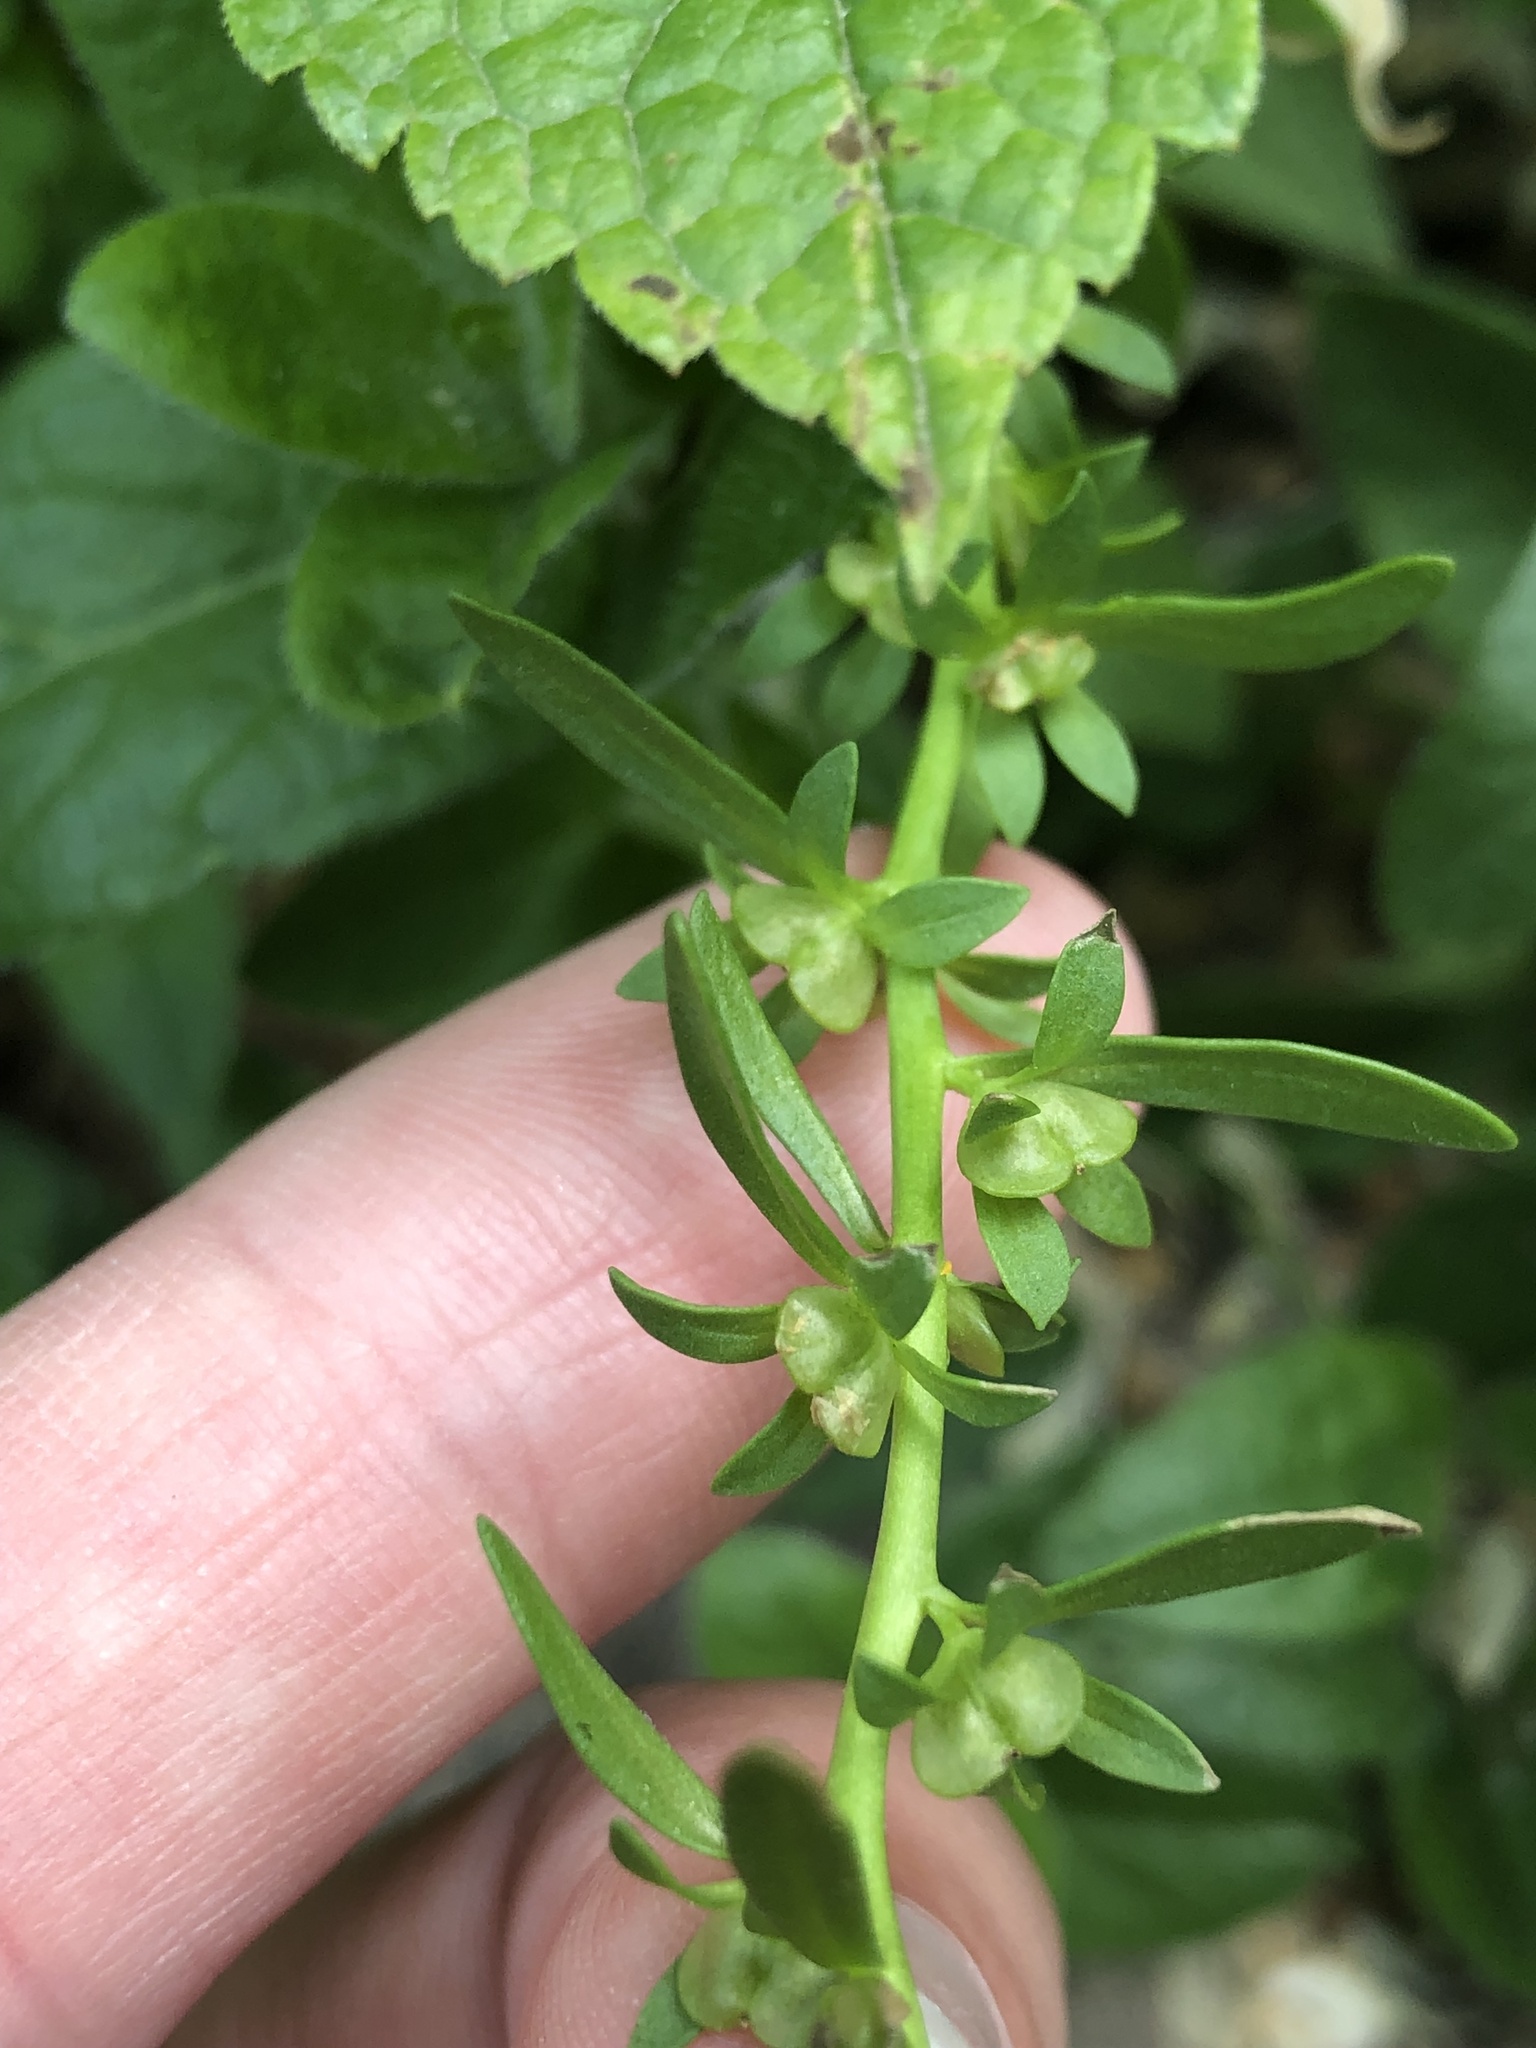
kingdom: Plantae
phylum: Tracheophyta
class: Magnoliopsida
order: Lamiales
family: Plantaginaceae
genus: Veronica
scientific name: Veronica peregrina
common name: Neckweed
